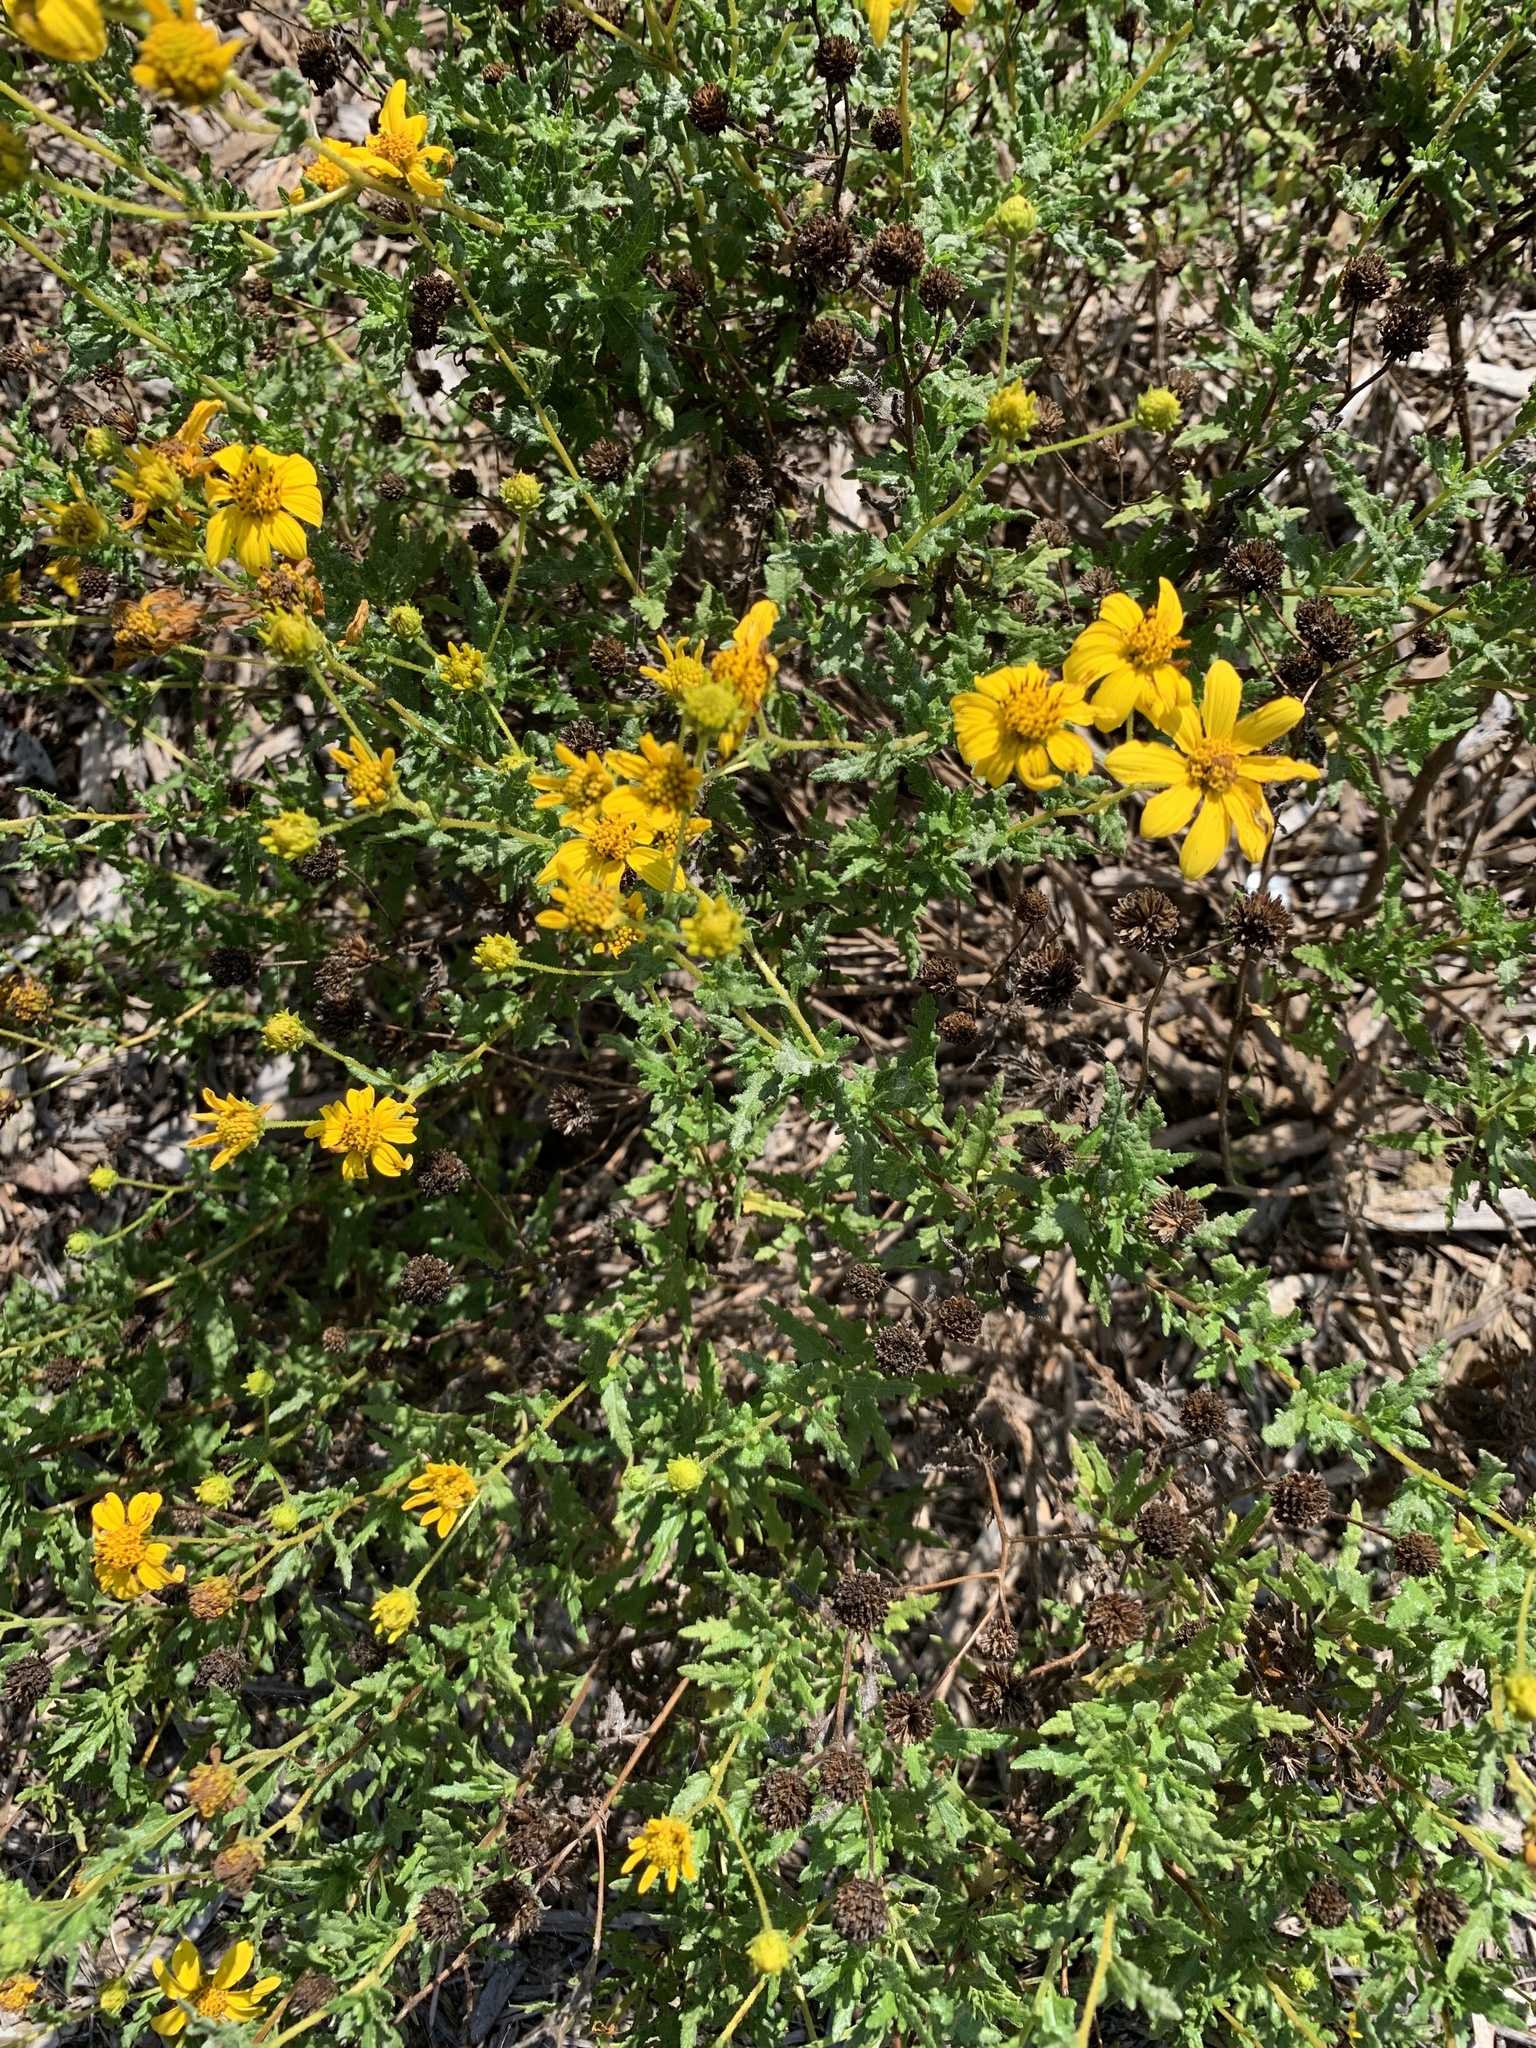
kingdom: Plantae
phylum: Tracheophyta
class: Magnoliopsida
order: Asterales
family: Asteraceae
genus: Bahiopsis
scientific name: Bahiopsis laciniata
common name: San diego county viguiera
